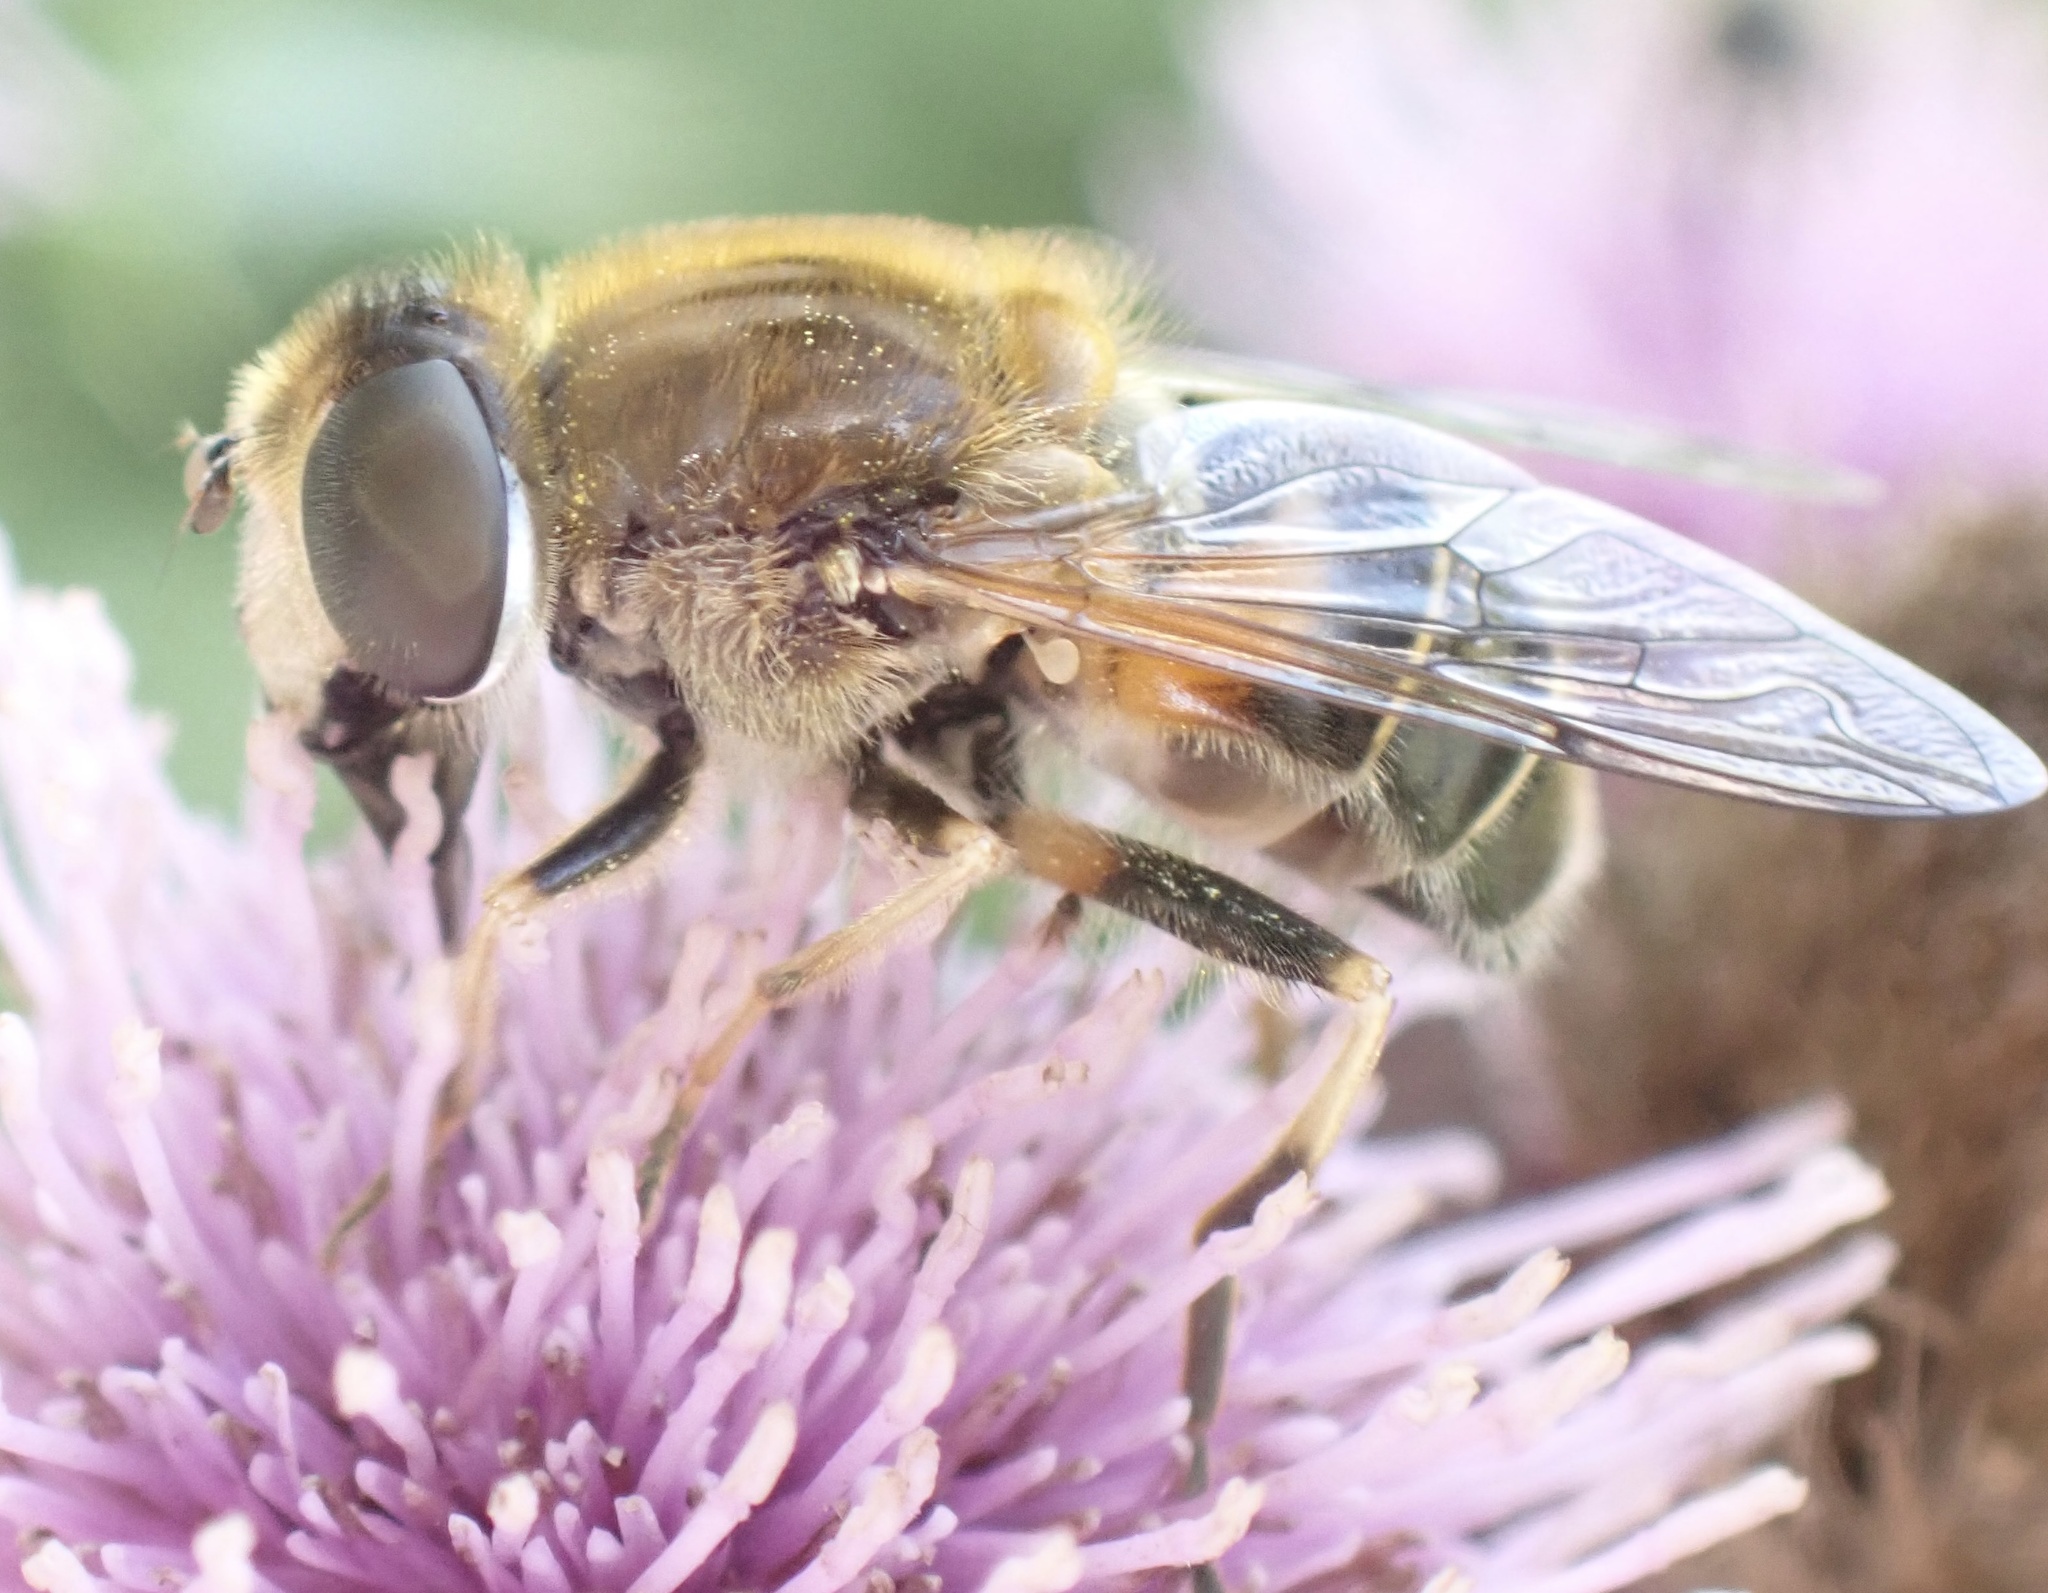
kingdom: Animalia
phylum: Arthropoda
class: Insecta
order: Diptera
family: Syrphidae
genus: Eristalis
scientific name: Eristalis arbustorum
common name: Hover fly
